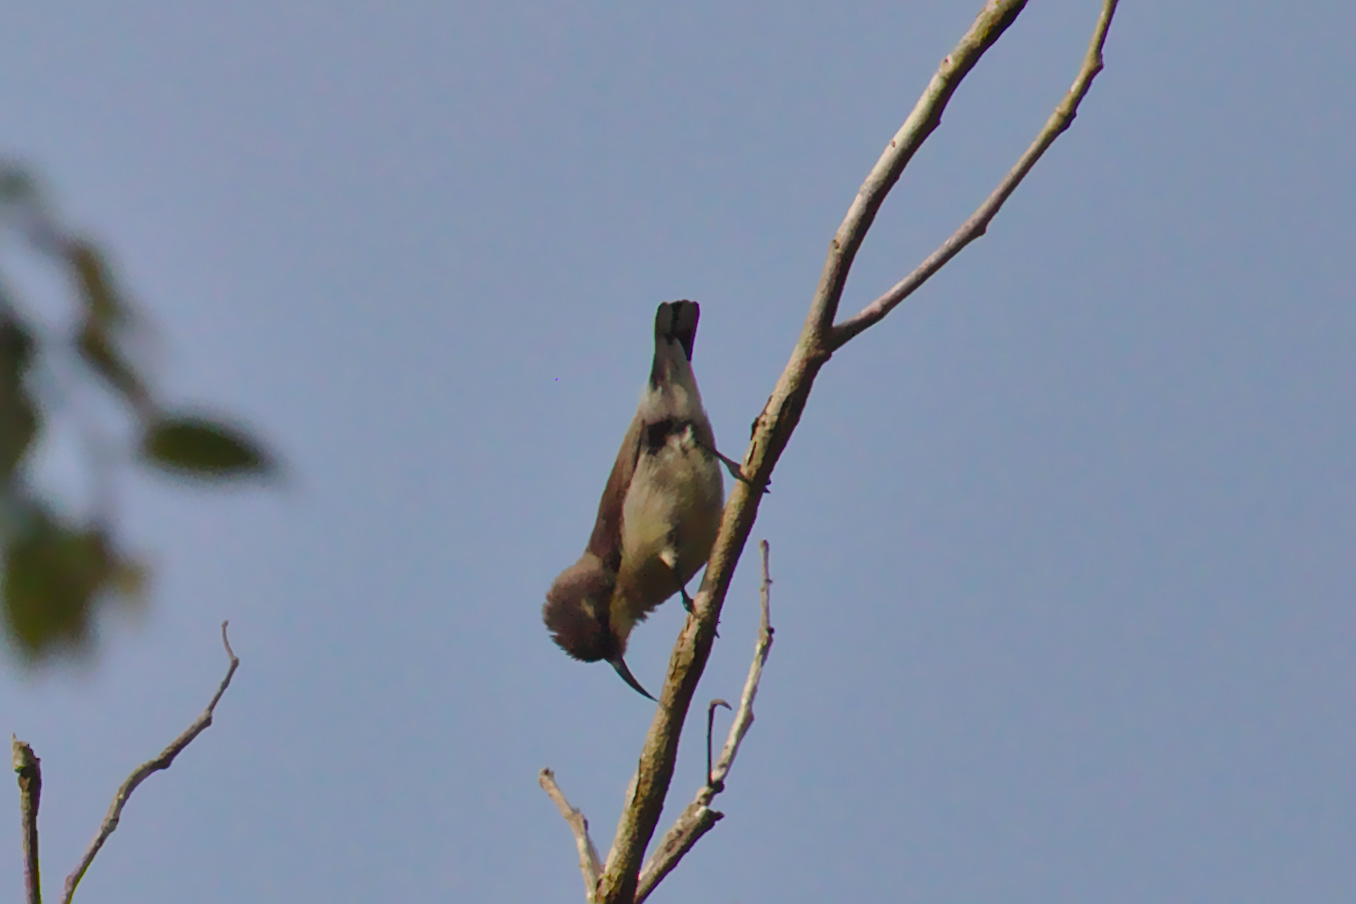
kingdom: Animalia
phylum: Chordata
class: Aves
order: Passeriformes
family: Nectariniidae
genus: Cinnyris
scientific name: Cinnyris asiaticus
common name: Purple sunbird
